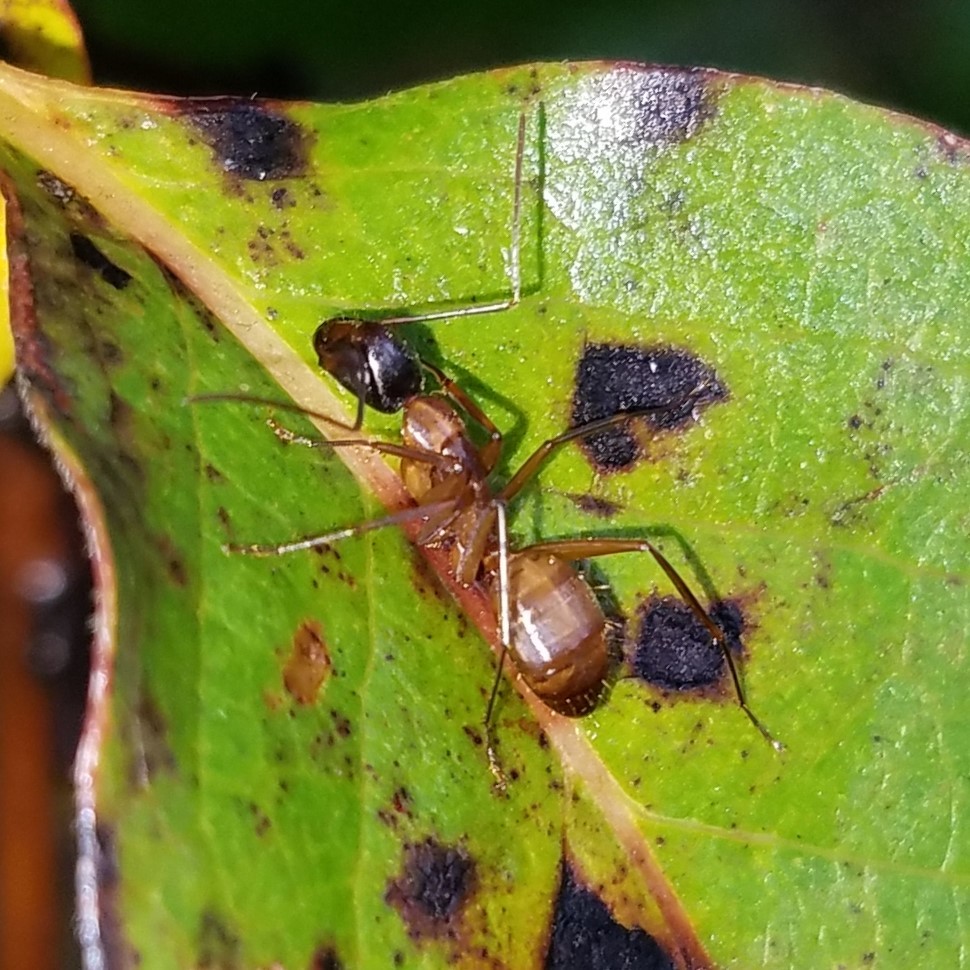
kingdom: Animalia
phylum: Arthropoda
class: Insecta
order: Hymenoptera
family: Formicidae
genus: Camponotus
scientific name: Camponotus americanus
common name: American carpenter ant
